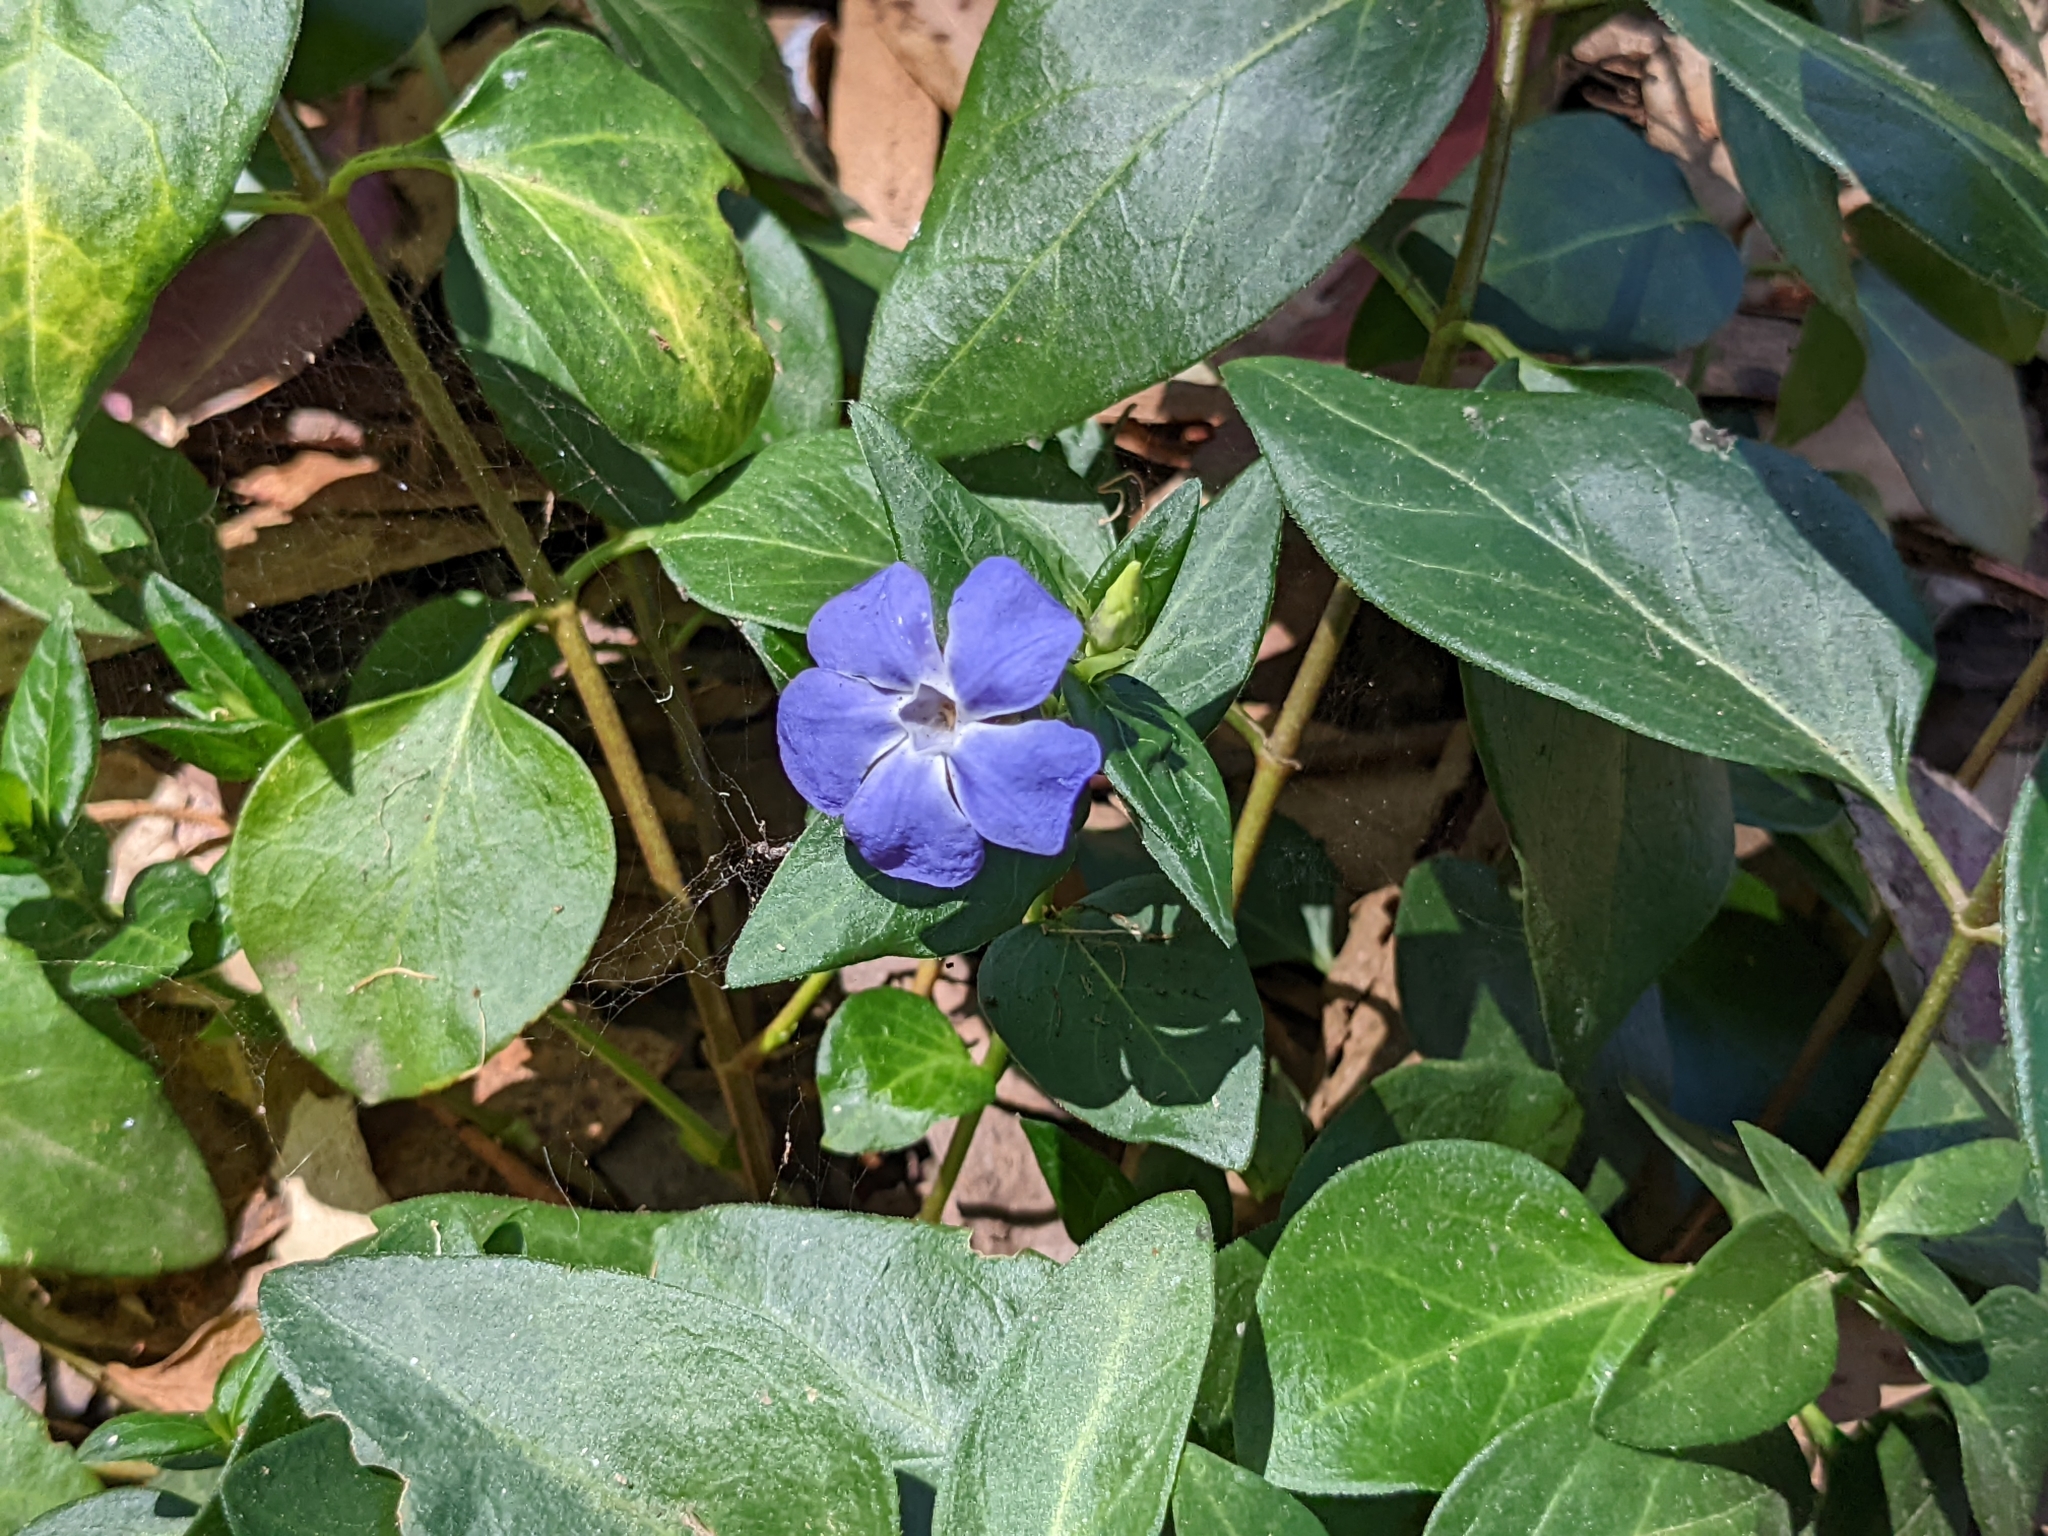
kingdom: Plantae
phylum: Tracheophyta
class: Magnoliopsida
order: Gentianales
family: Apocynaceae
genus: Vinca
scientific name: Vinca major
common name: Greater periwinkle
